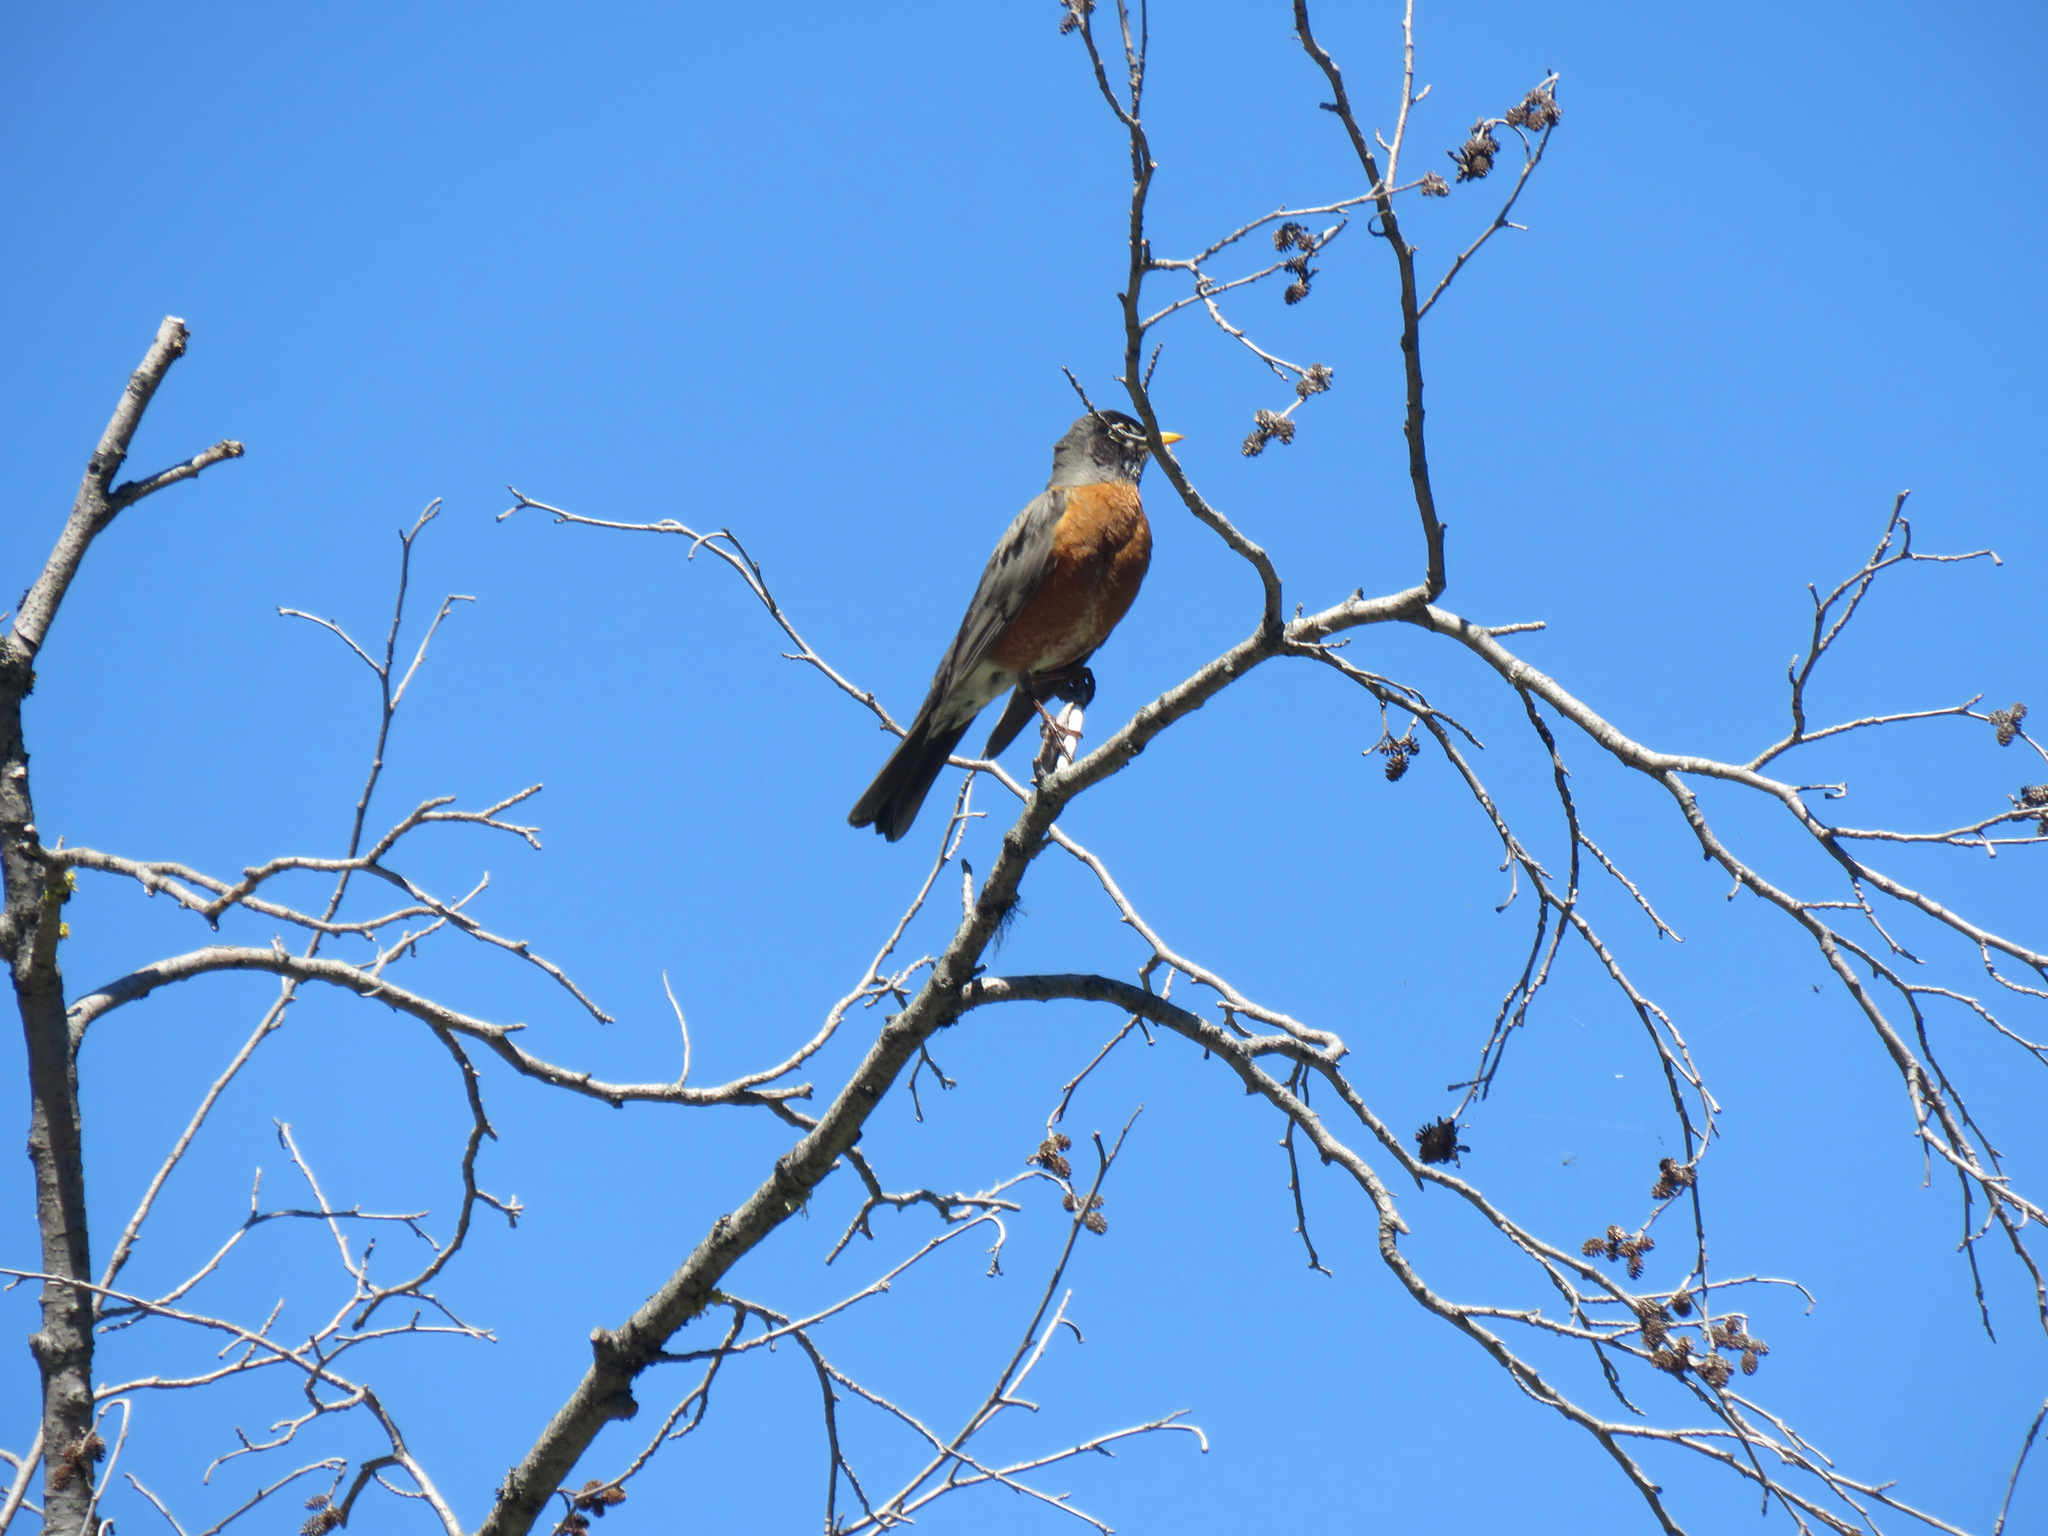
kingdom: Animalia
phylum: Chordata
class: Aves
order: Passeriformes
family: Turdidae
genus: Turdus
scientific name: Turdus migratorius
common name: American robin
